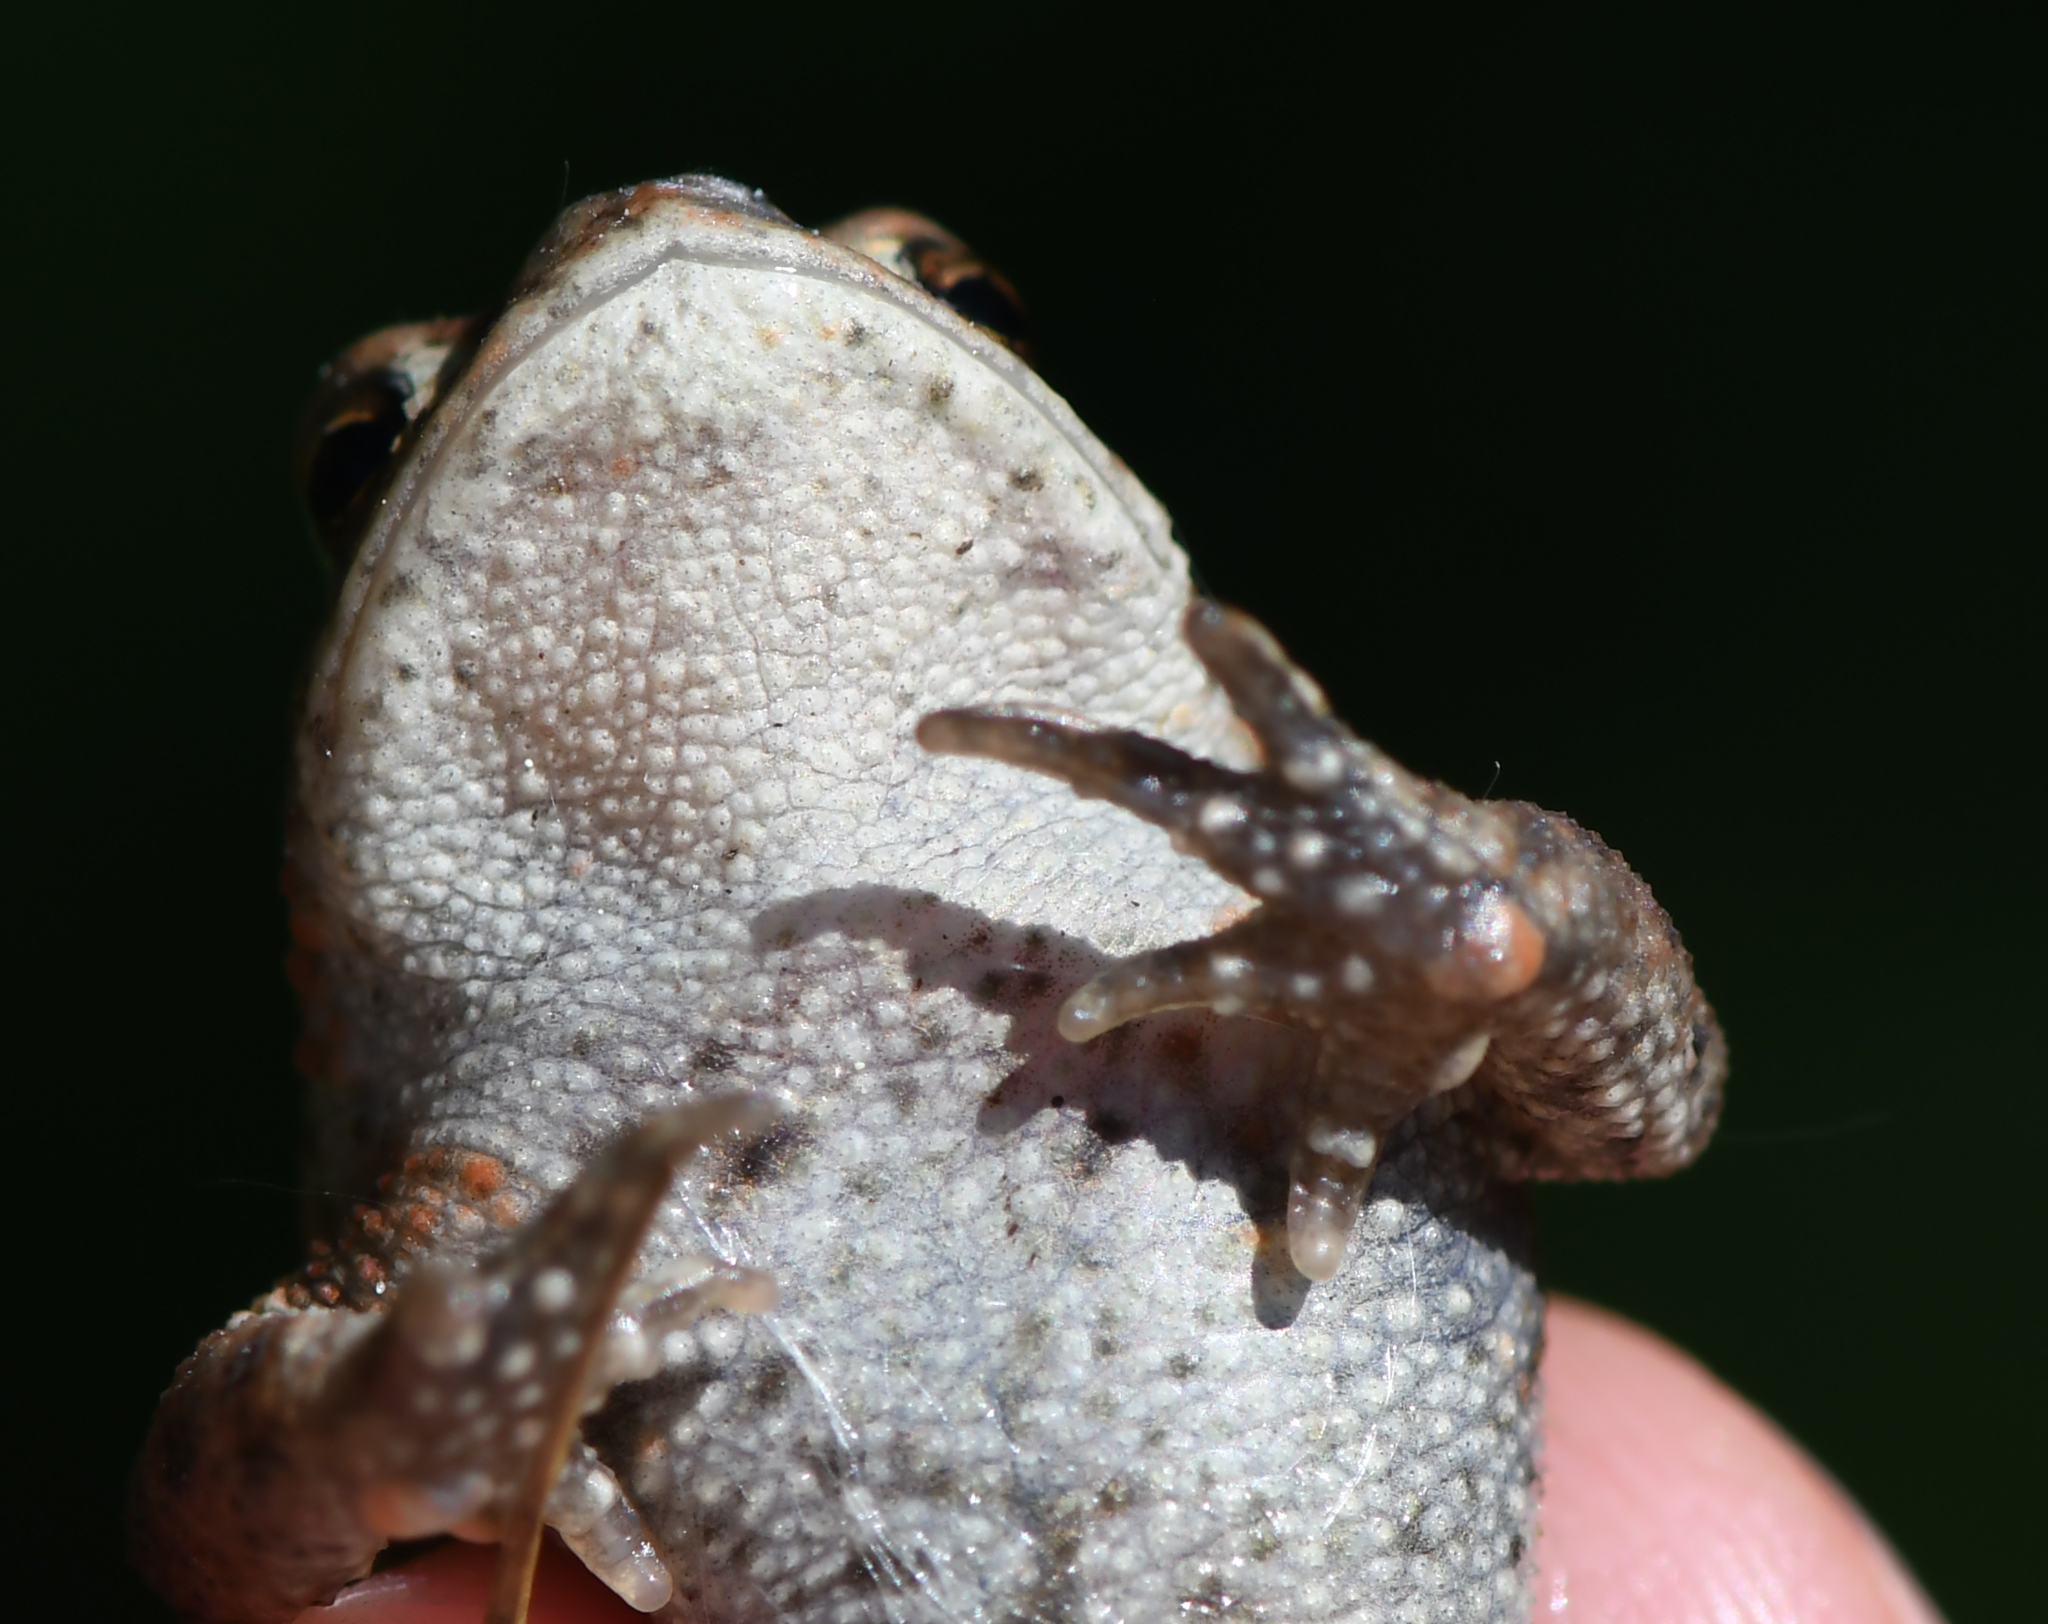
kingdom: Animalia
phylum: Chordata
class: Amphibia
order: Anura
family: Bufonidae
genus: Bufo
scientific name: Bufo bufo
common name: Common toad
